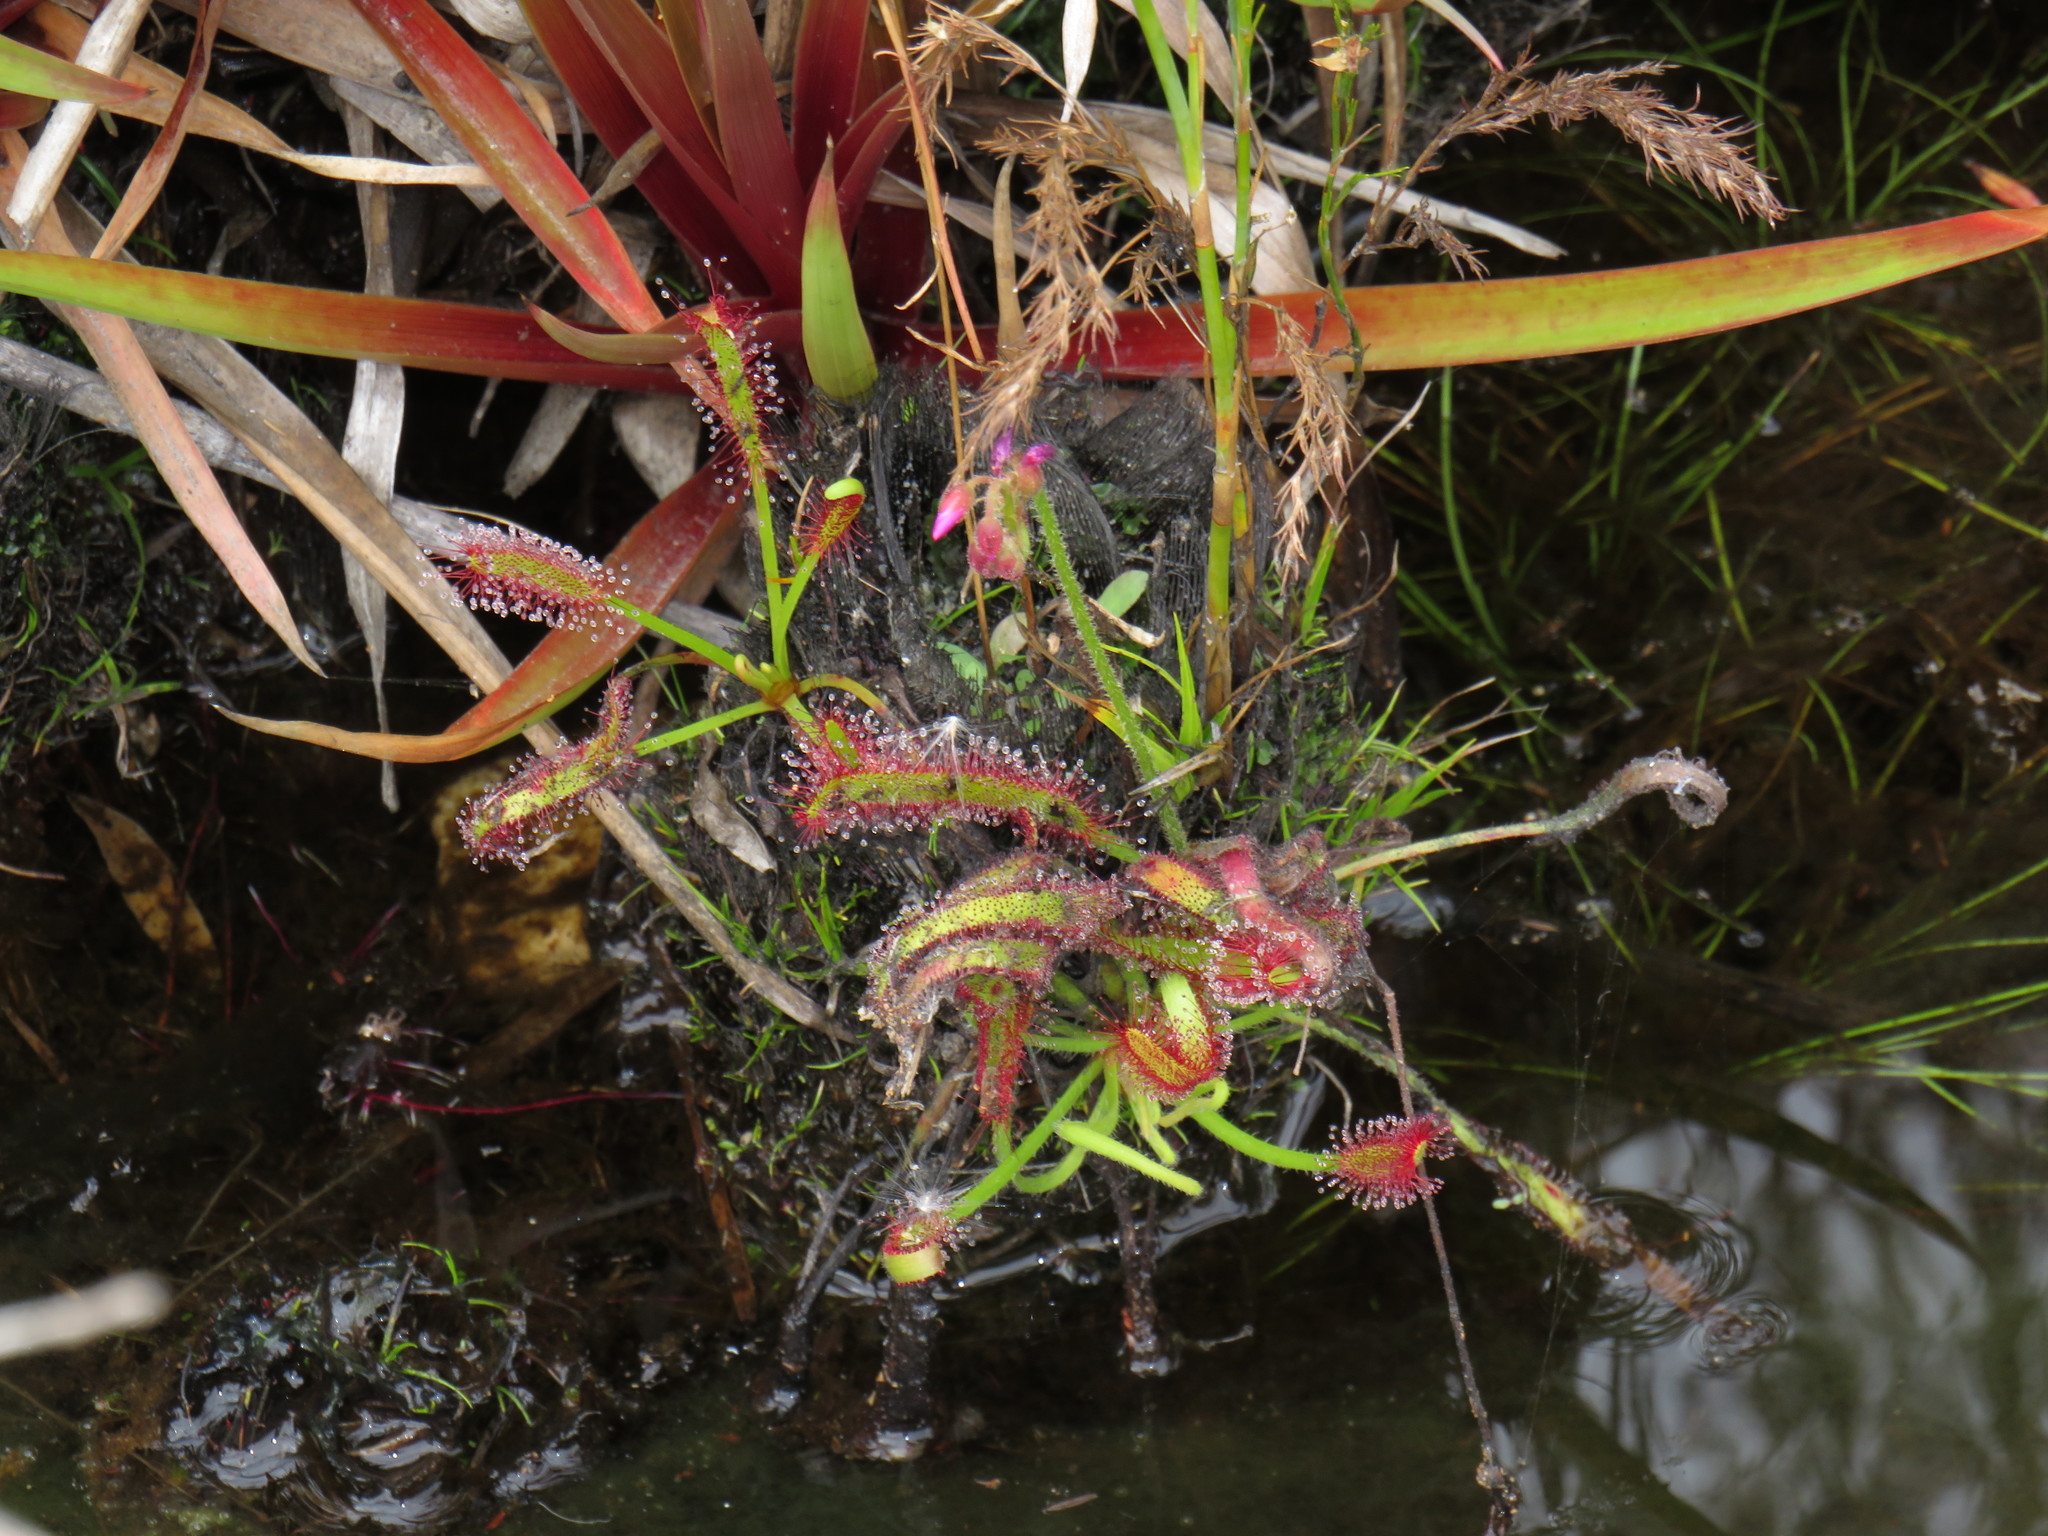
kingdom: Plantae
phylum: Tracheophyta
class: Magnoliopsida
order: Caryophyllales
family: Droseraceae
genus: Drosera
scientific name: Drosera capensis
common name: Cape sundew
